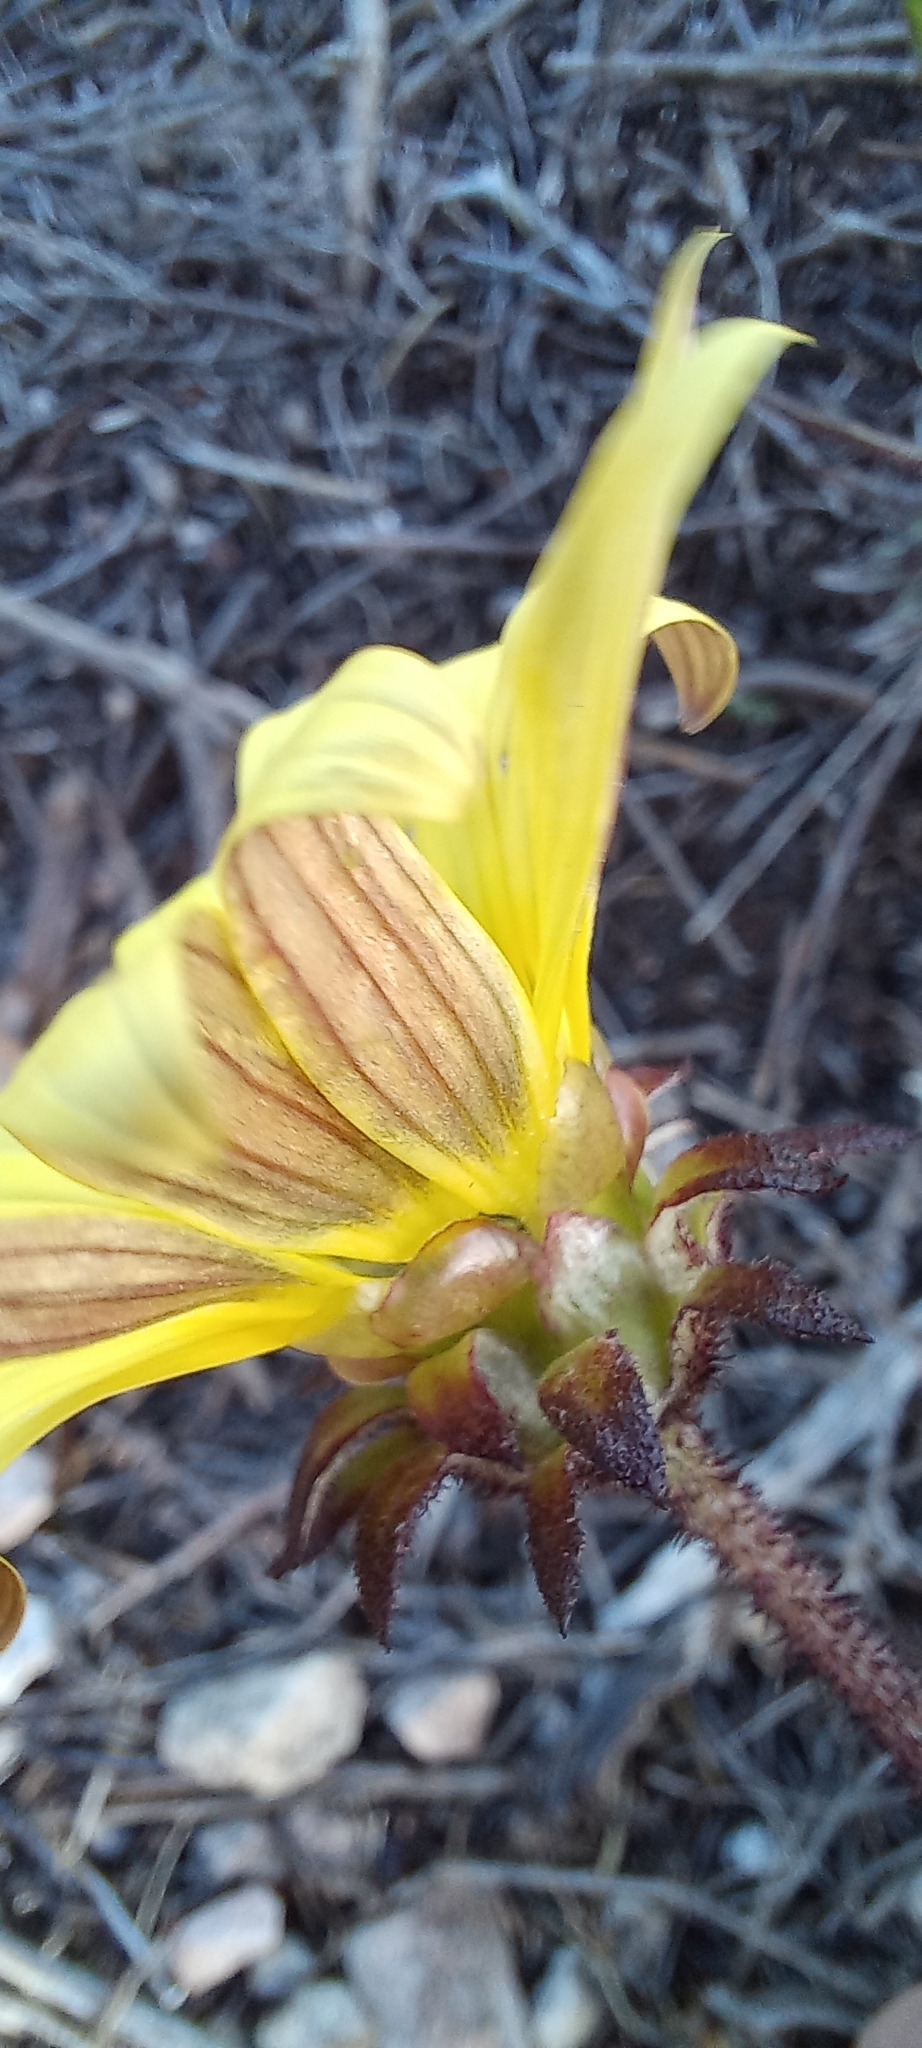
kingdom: Plantae
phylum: Tracheophyta
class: Magnoliopsida
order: Asterales
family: Asteraceae
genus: Arctotis
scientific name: Arctotis scabra
